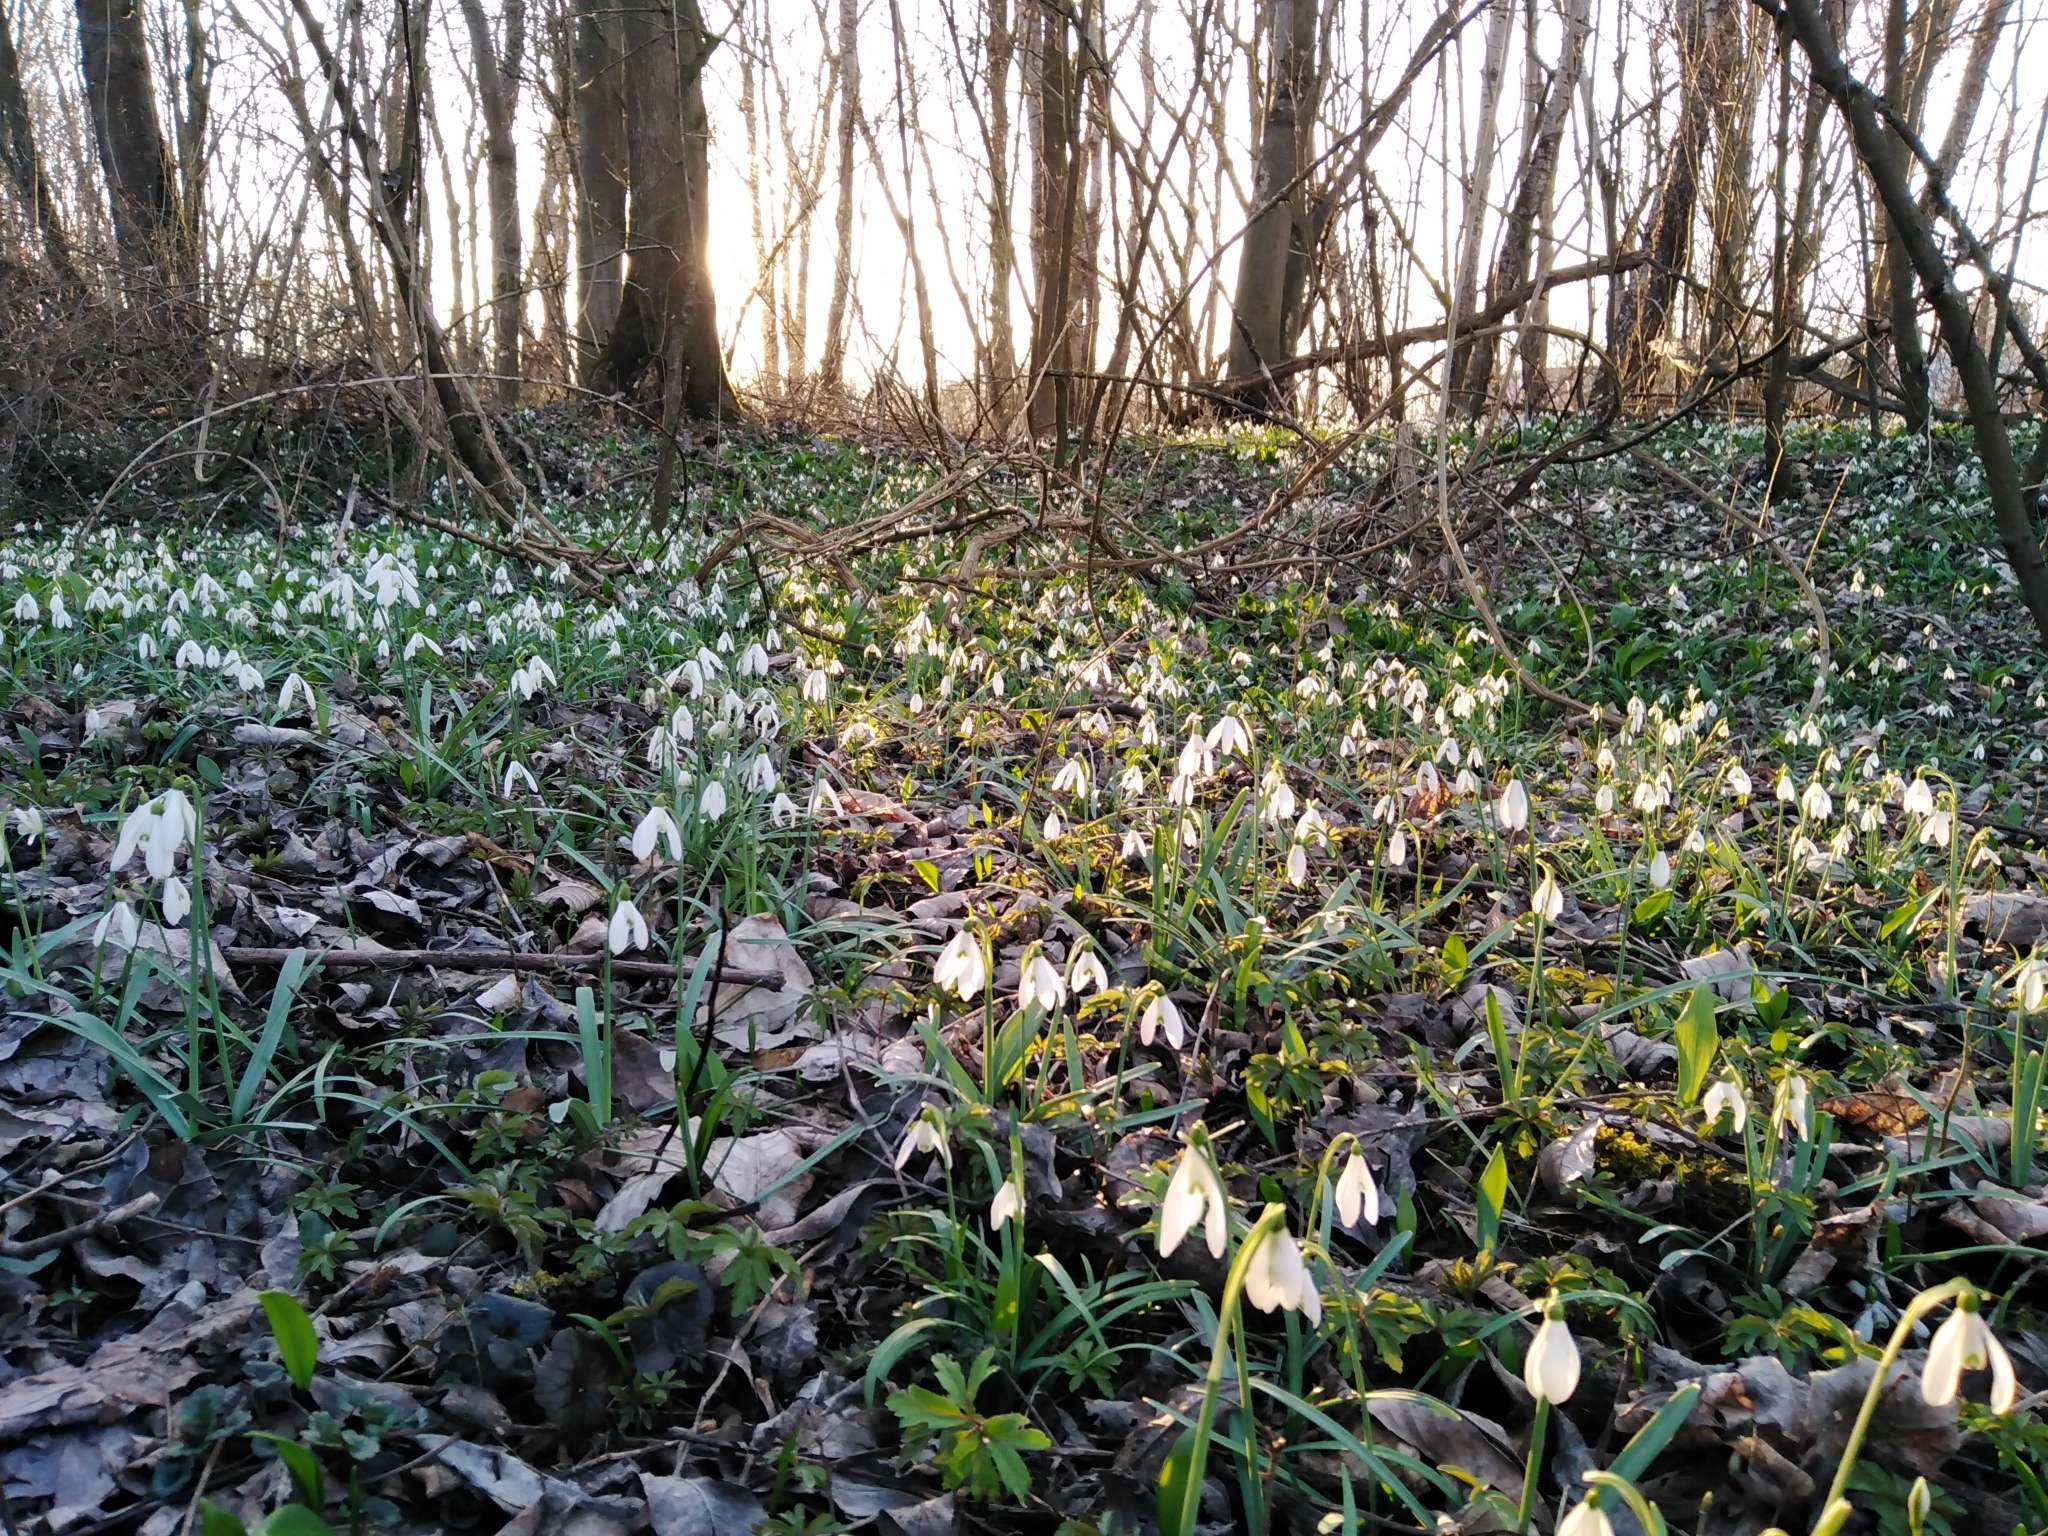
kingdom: Plantae
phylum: Tracheophyta
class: Liliopsida
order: Asparagales
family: Amaryllidaceae
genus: Galanthus
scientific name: Galanthus nivalis
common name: Snowdrop
